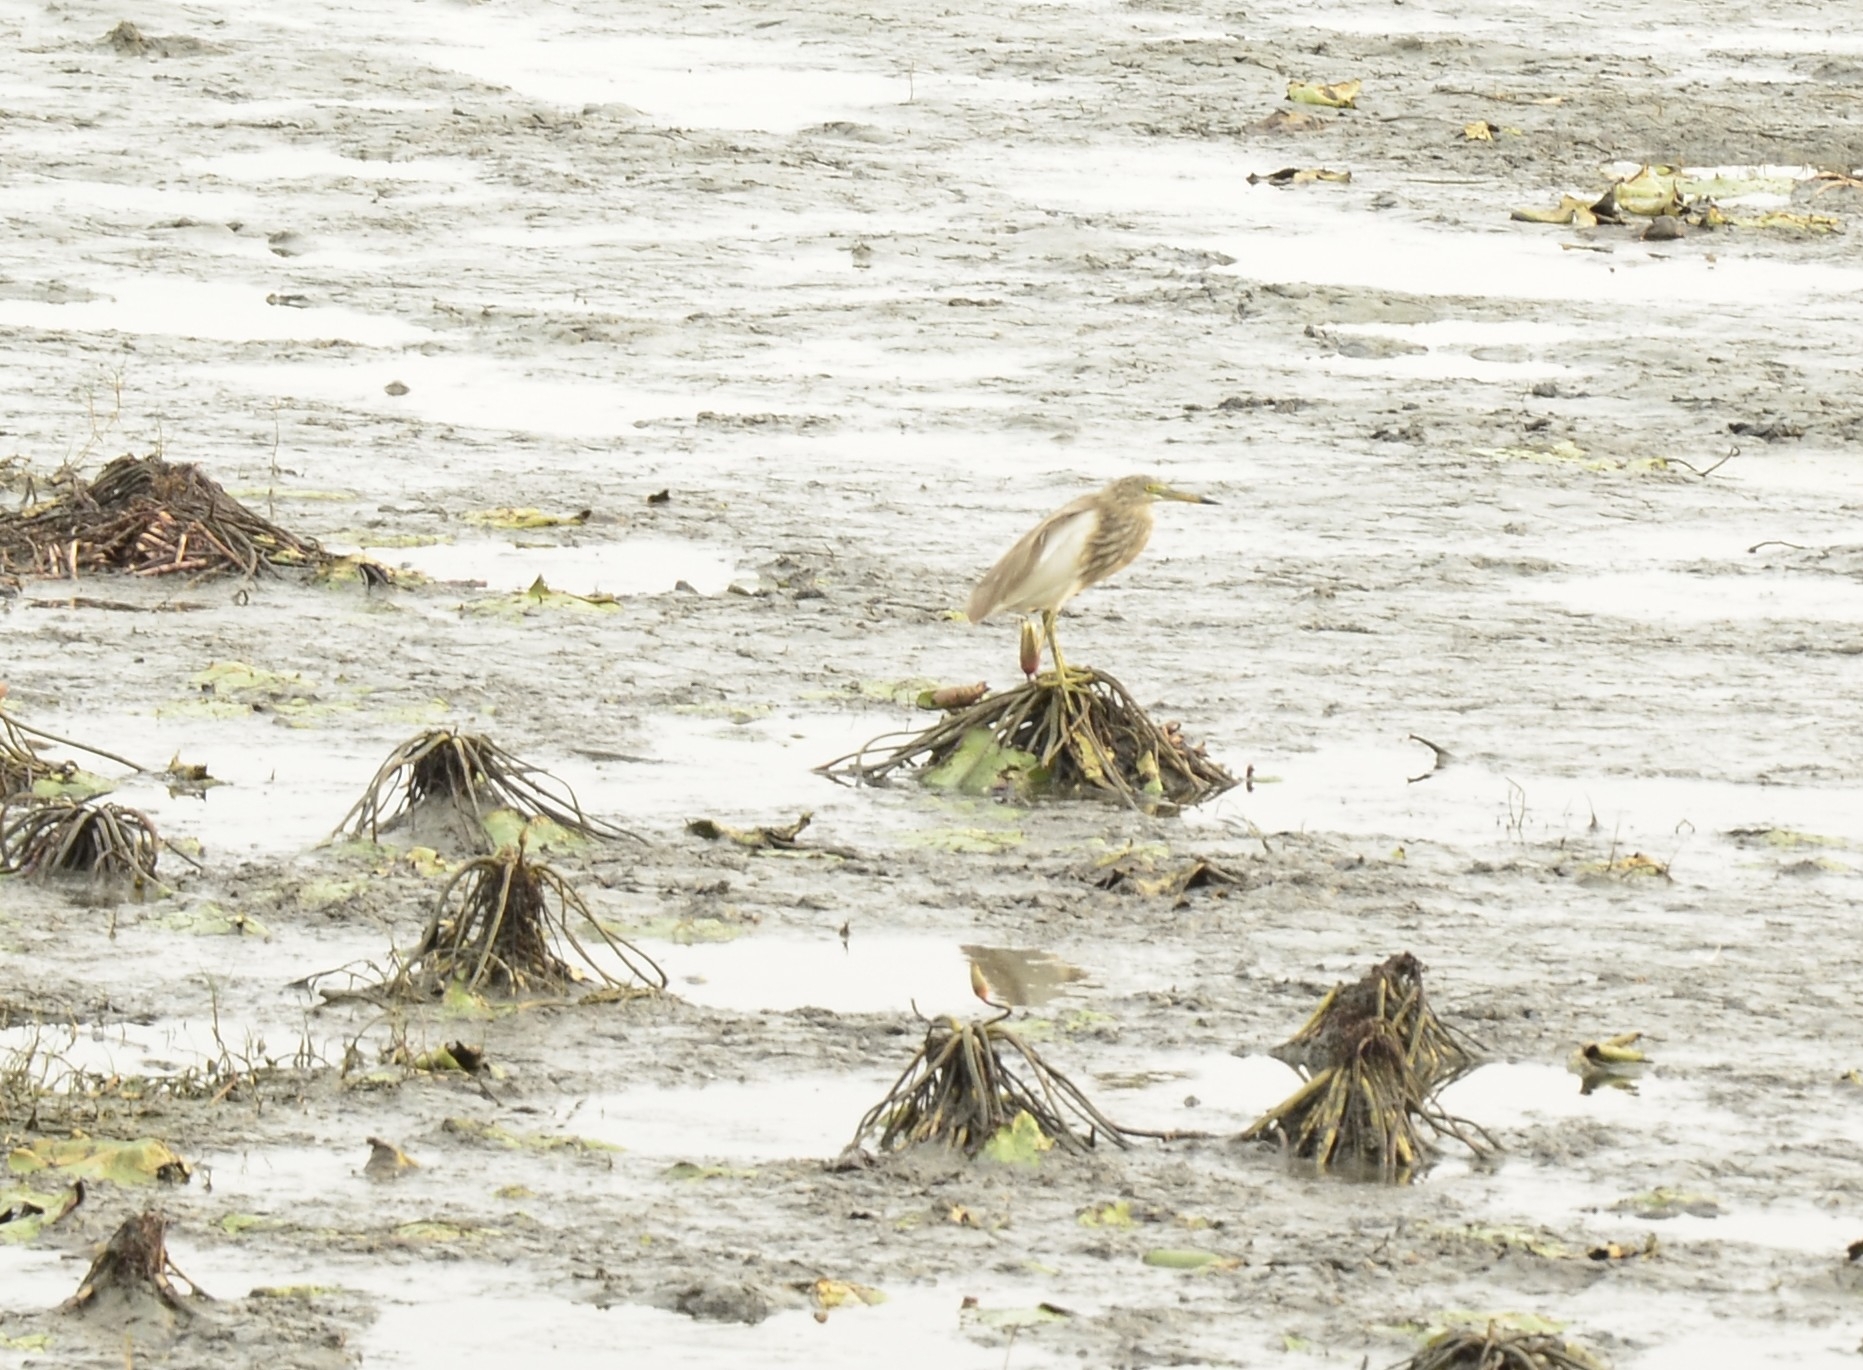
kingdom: Animalia
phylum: Chordata
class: Aves
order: Pelecaniformes
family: Ardeidae
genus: Ardeola
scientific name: Ardeola grayii
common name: Indian pond heron
